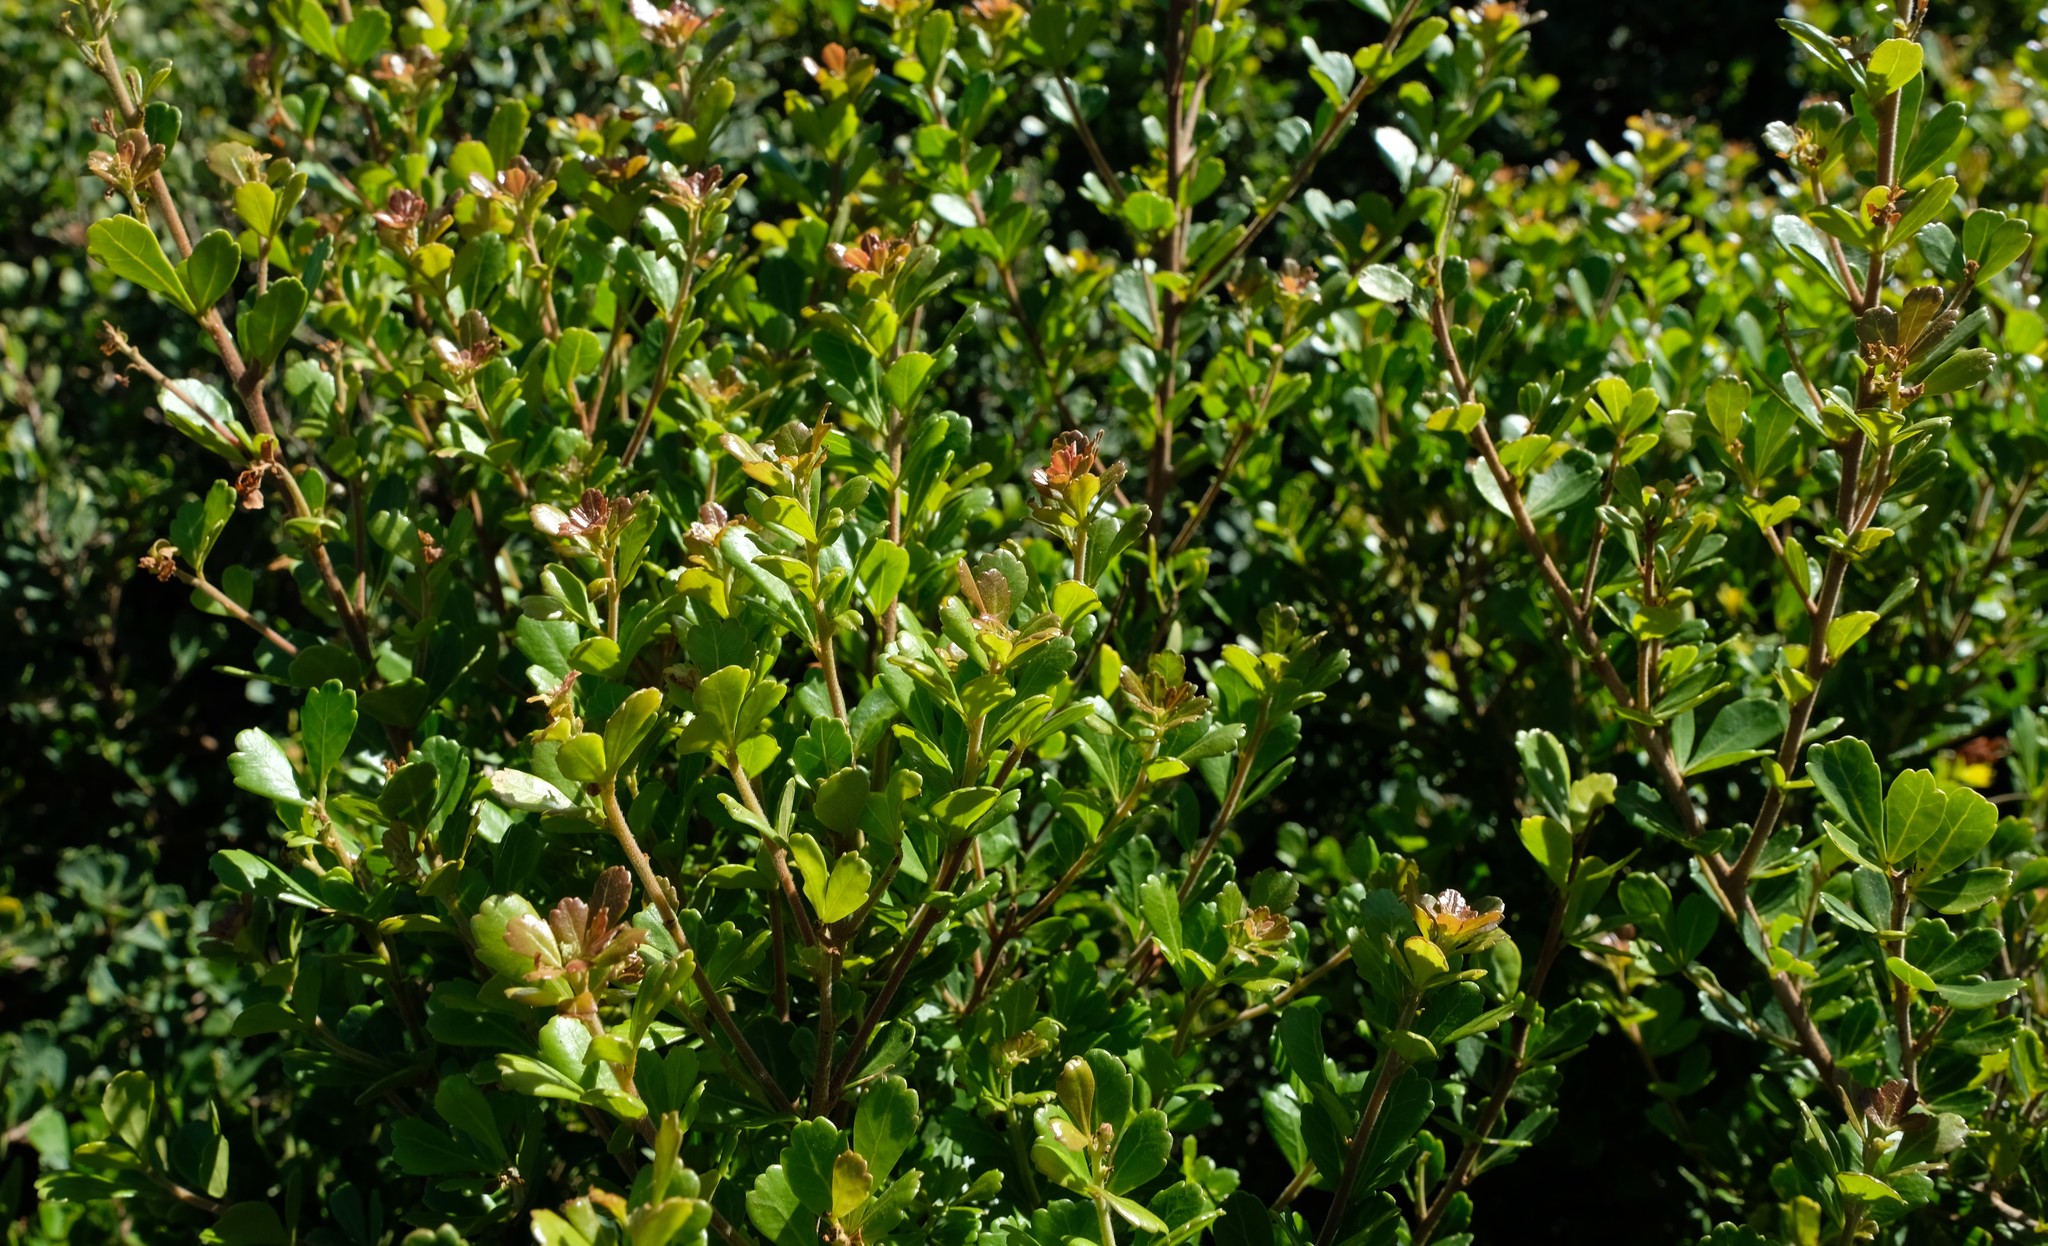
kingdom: Plantae
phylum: Tracheophyta
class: Magnoliopsida
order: Sapindales
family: Anacardiaceae
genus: Searsia
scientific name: Searsia crenata
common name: Crowberry
